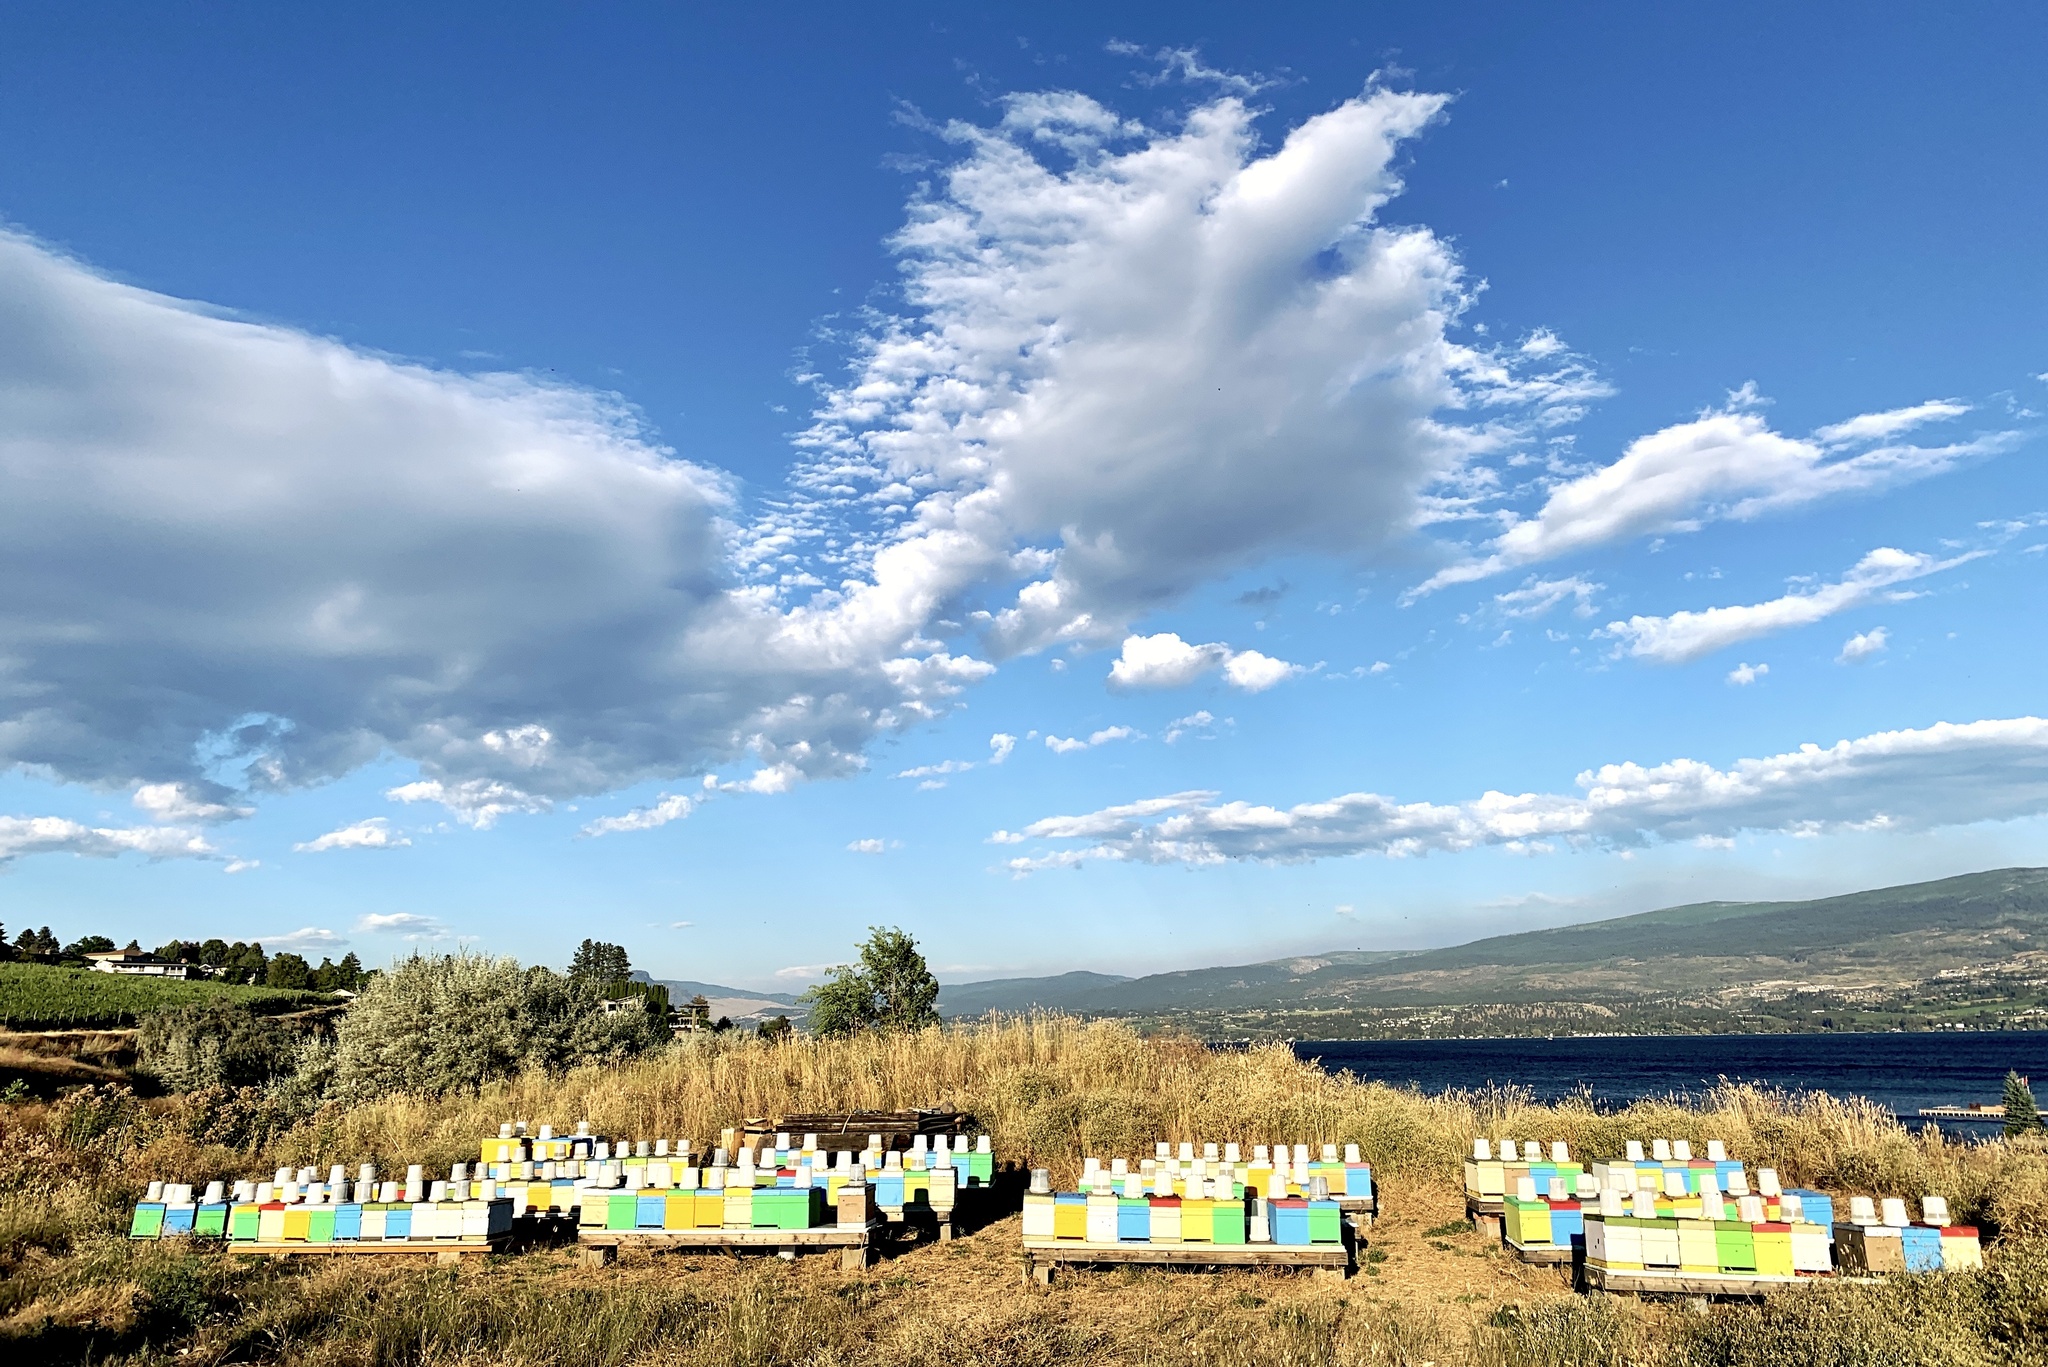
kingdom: Animalia
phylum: Arthropoda
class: Insecta
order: Hymenoptera
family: Apidae
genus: Apis
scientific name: Apis mellifera
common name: Honey bee
